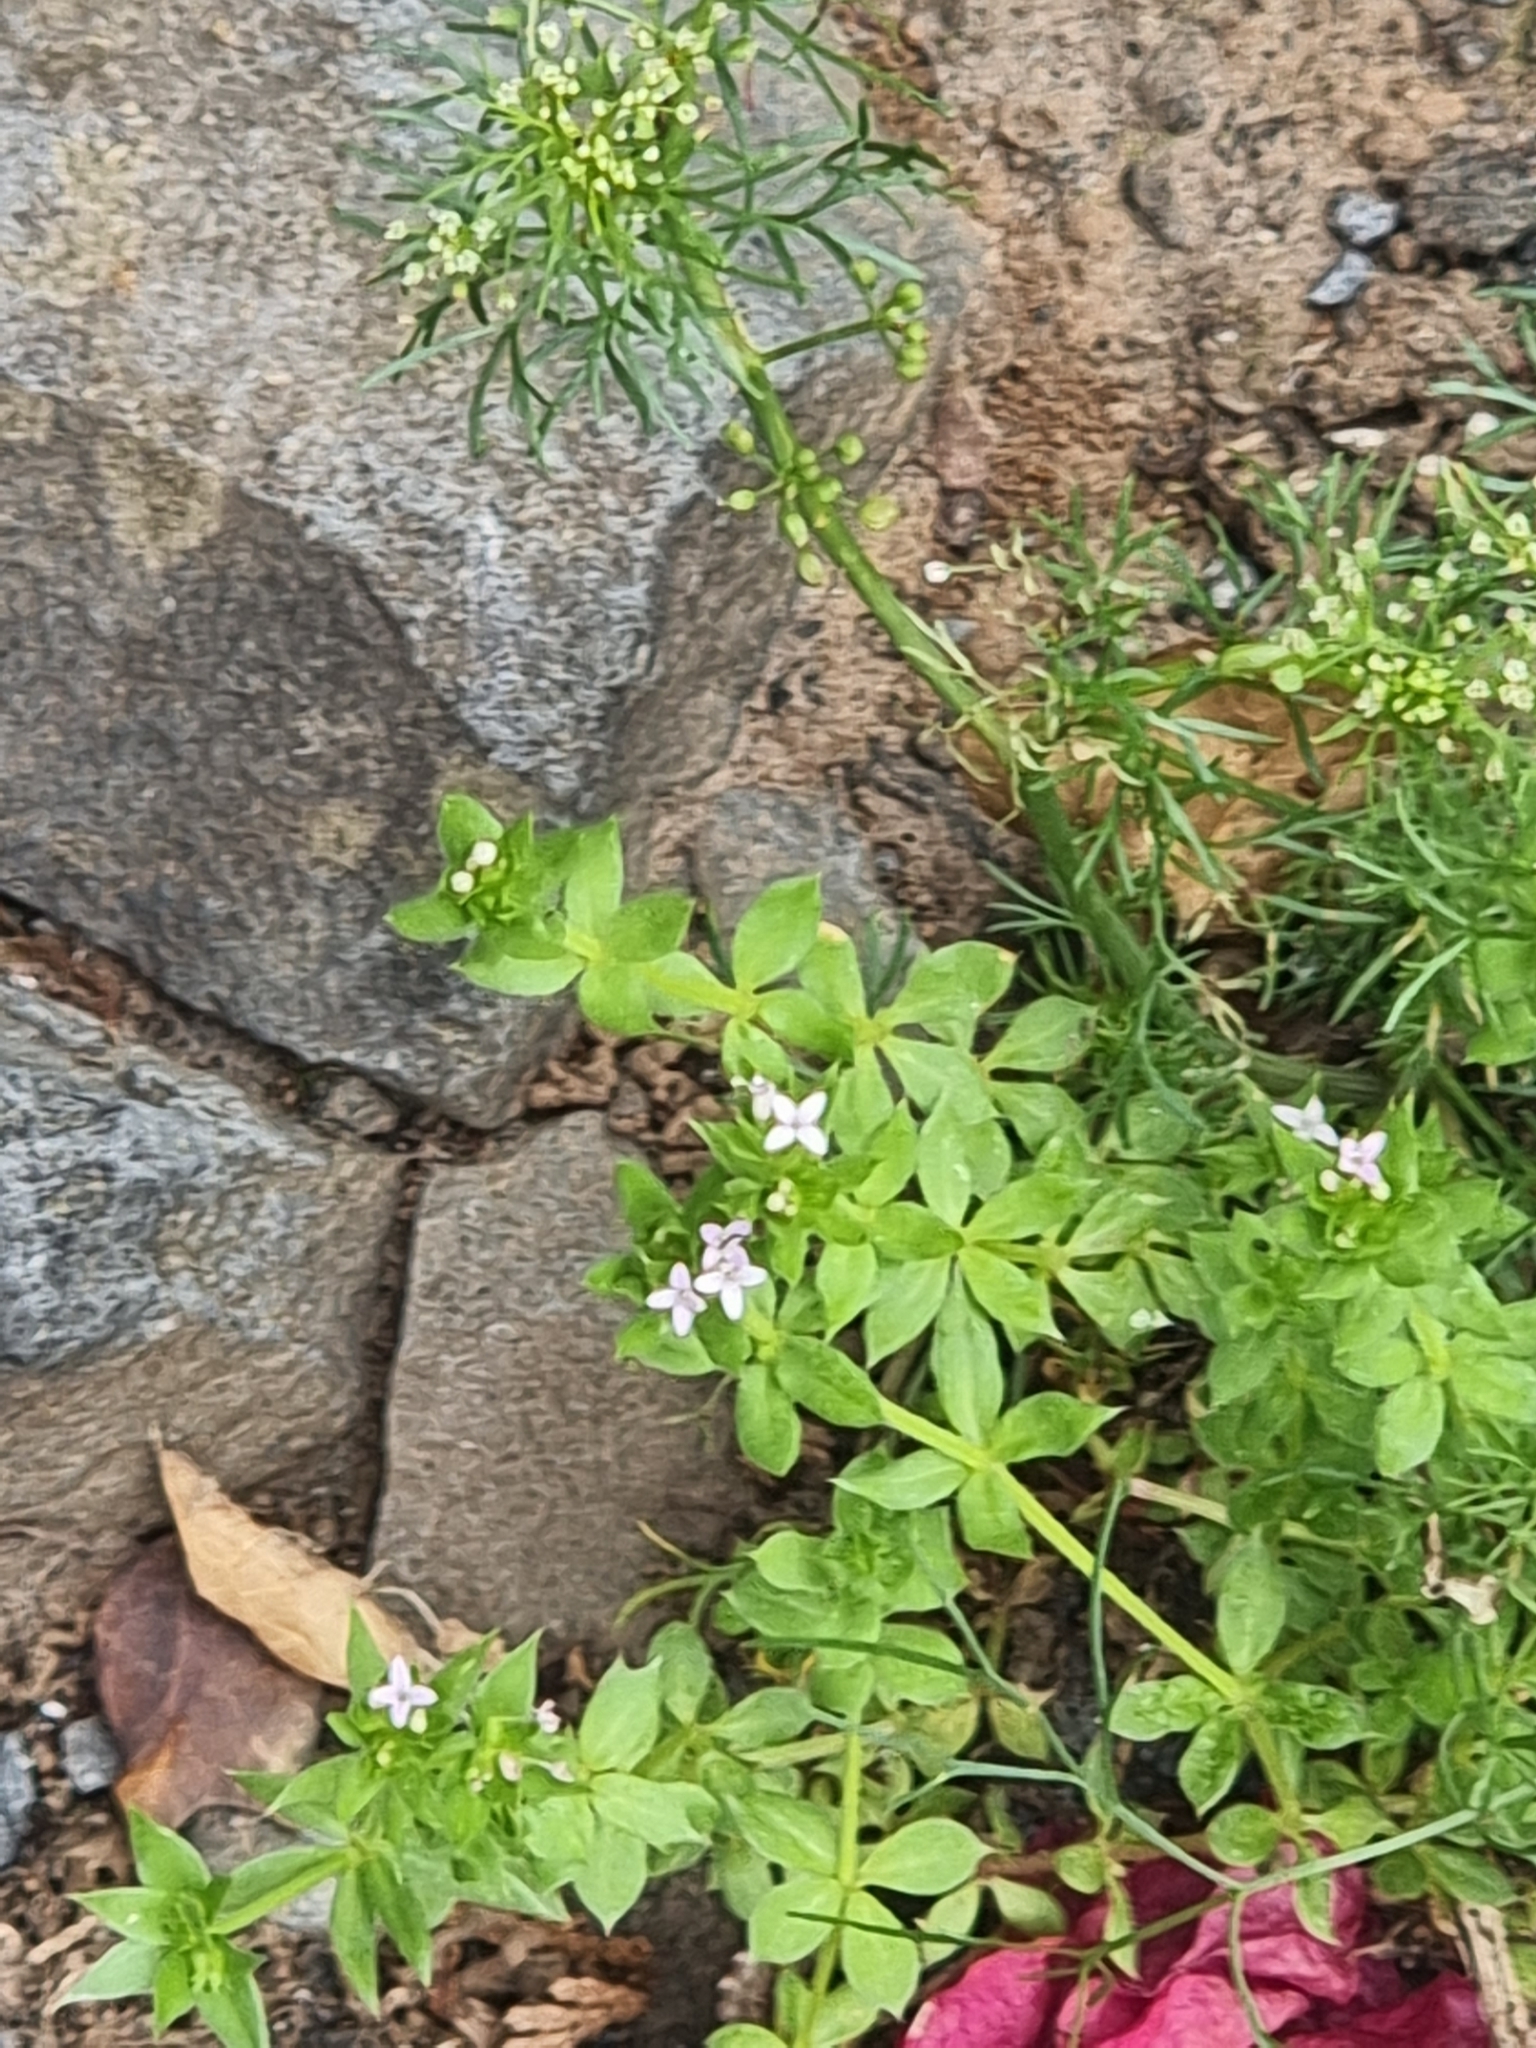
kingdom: Plantae
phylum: Tracheophyta
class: Magnoliopsida
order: Gentianales
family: Rubiaceae
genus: Sherardia
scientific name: Sherardia arvensis
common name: Field madder
